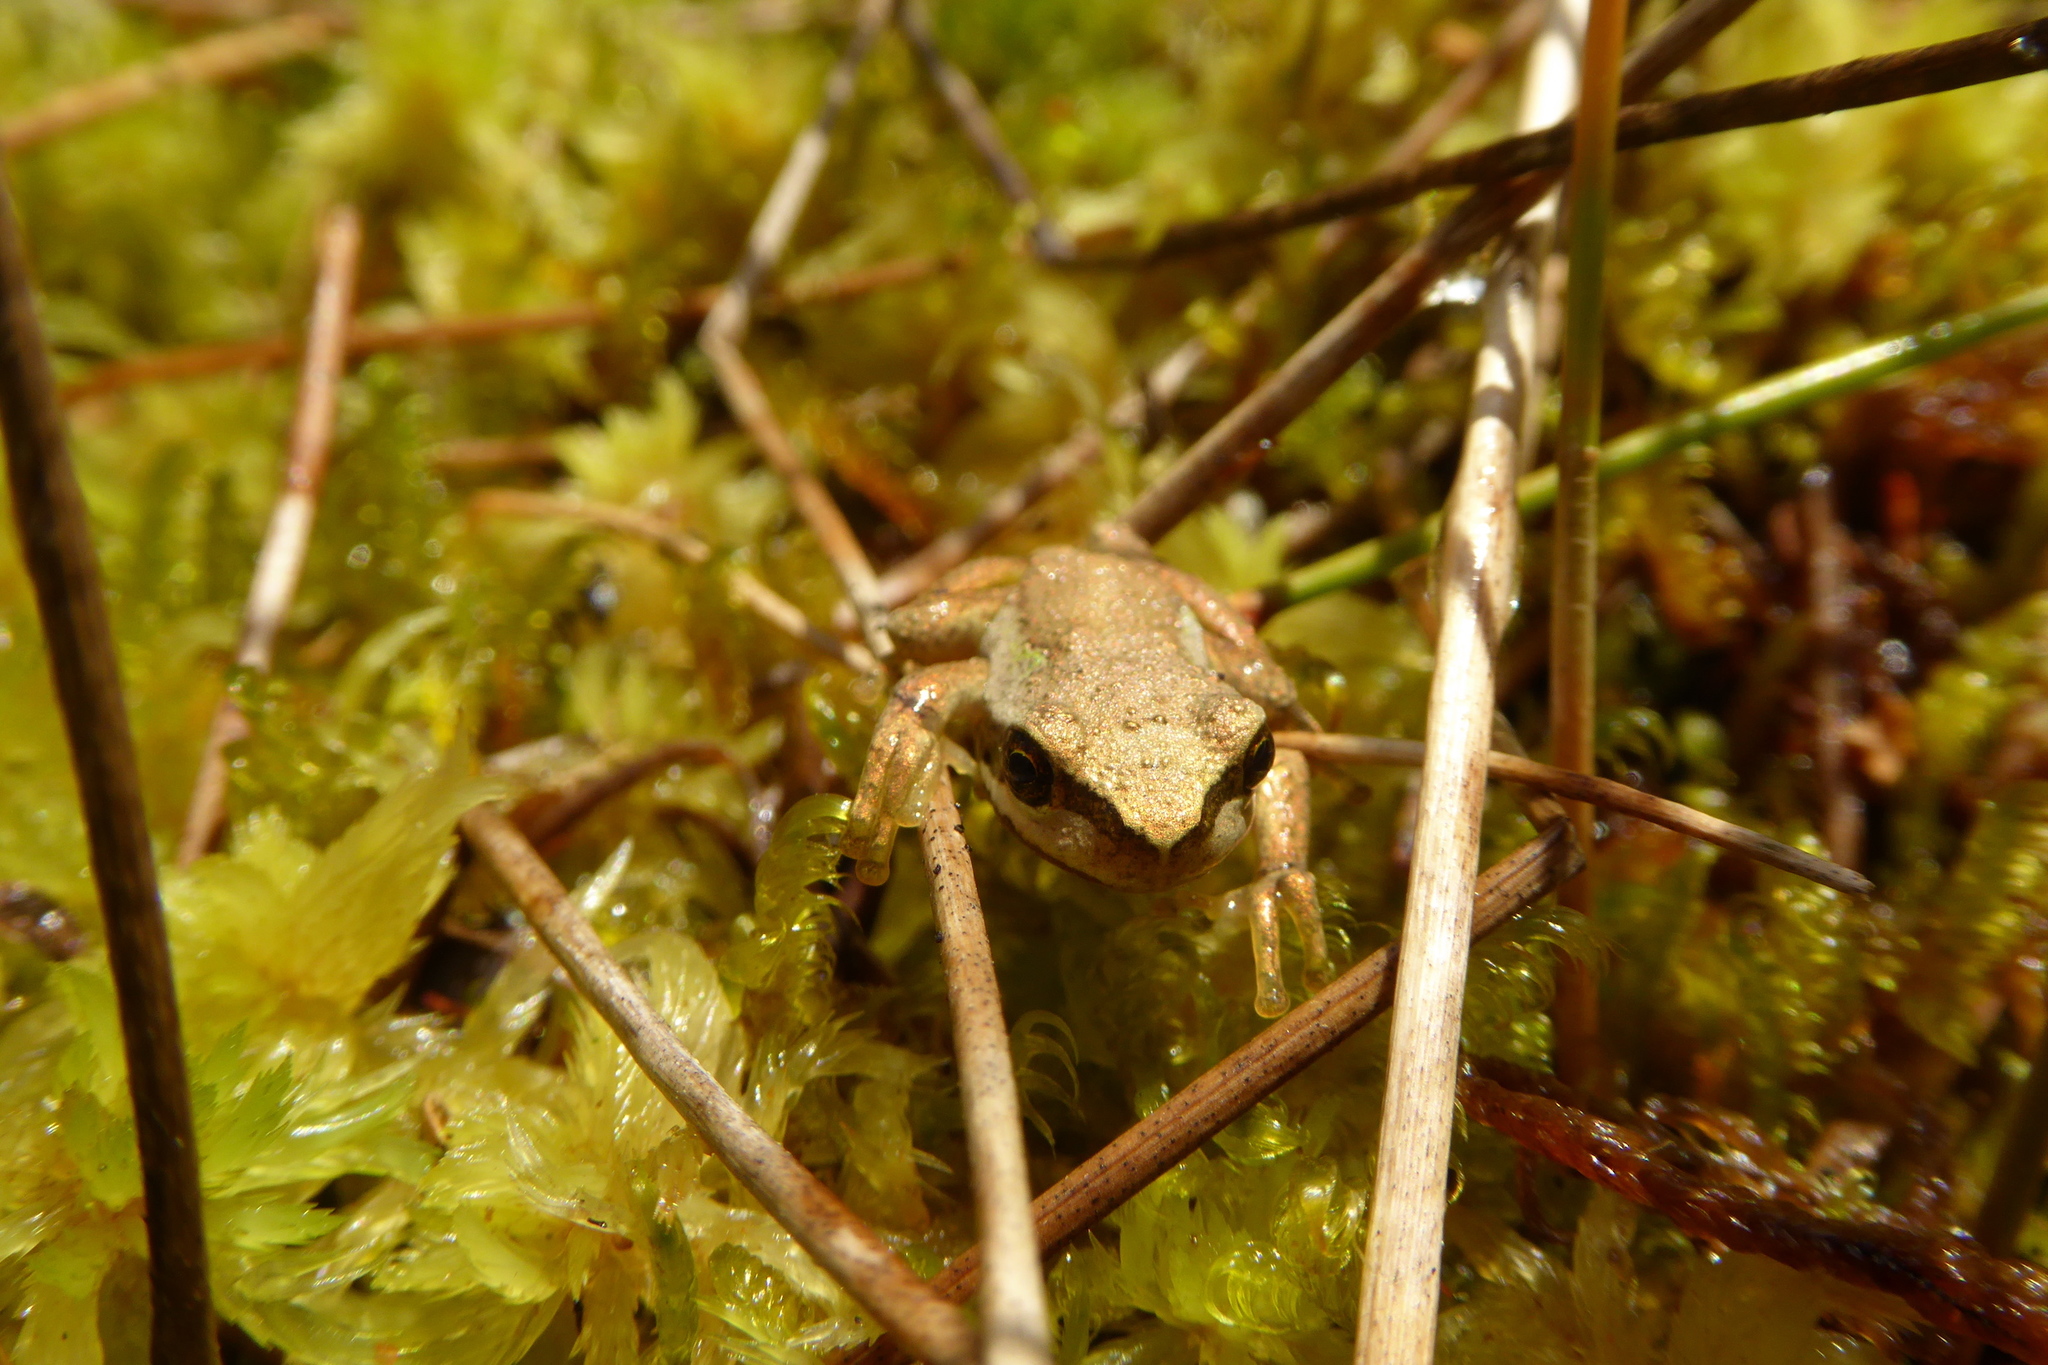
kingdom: Animalia
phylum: Chordata
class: Amphibia
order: Anura
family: Pelodryadidae
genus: Litoria
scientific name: Litoria ewingii
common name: Southern brown tree frog
